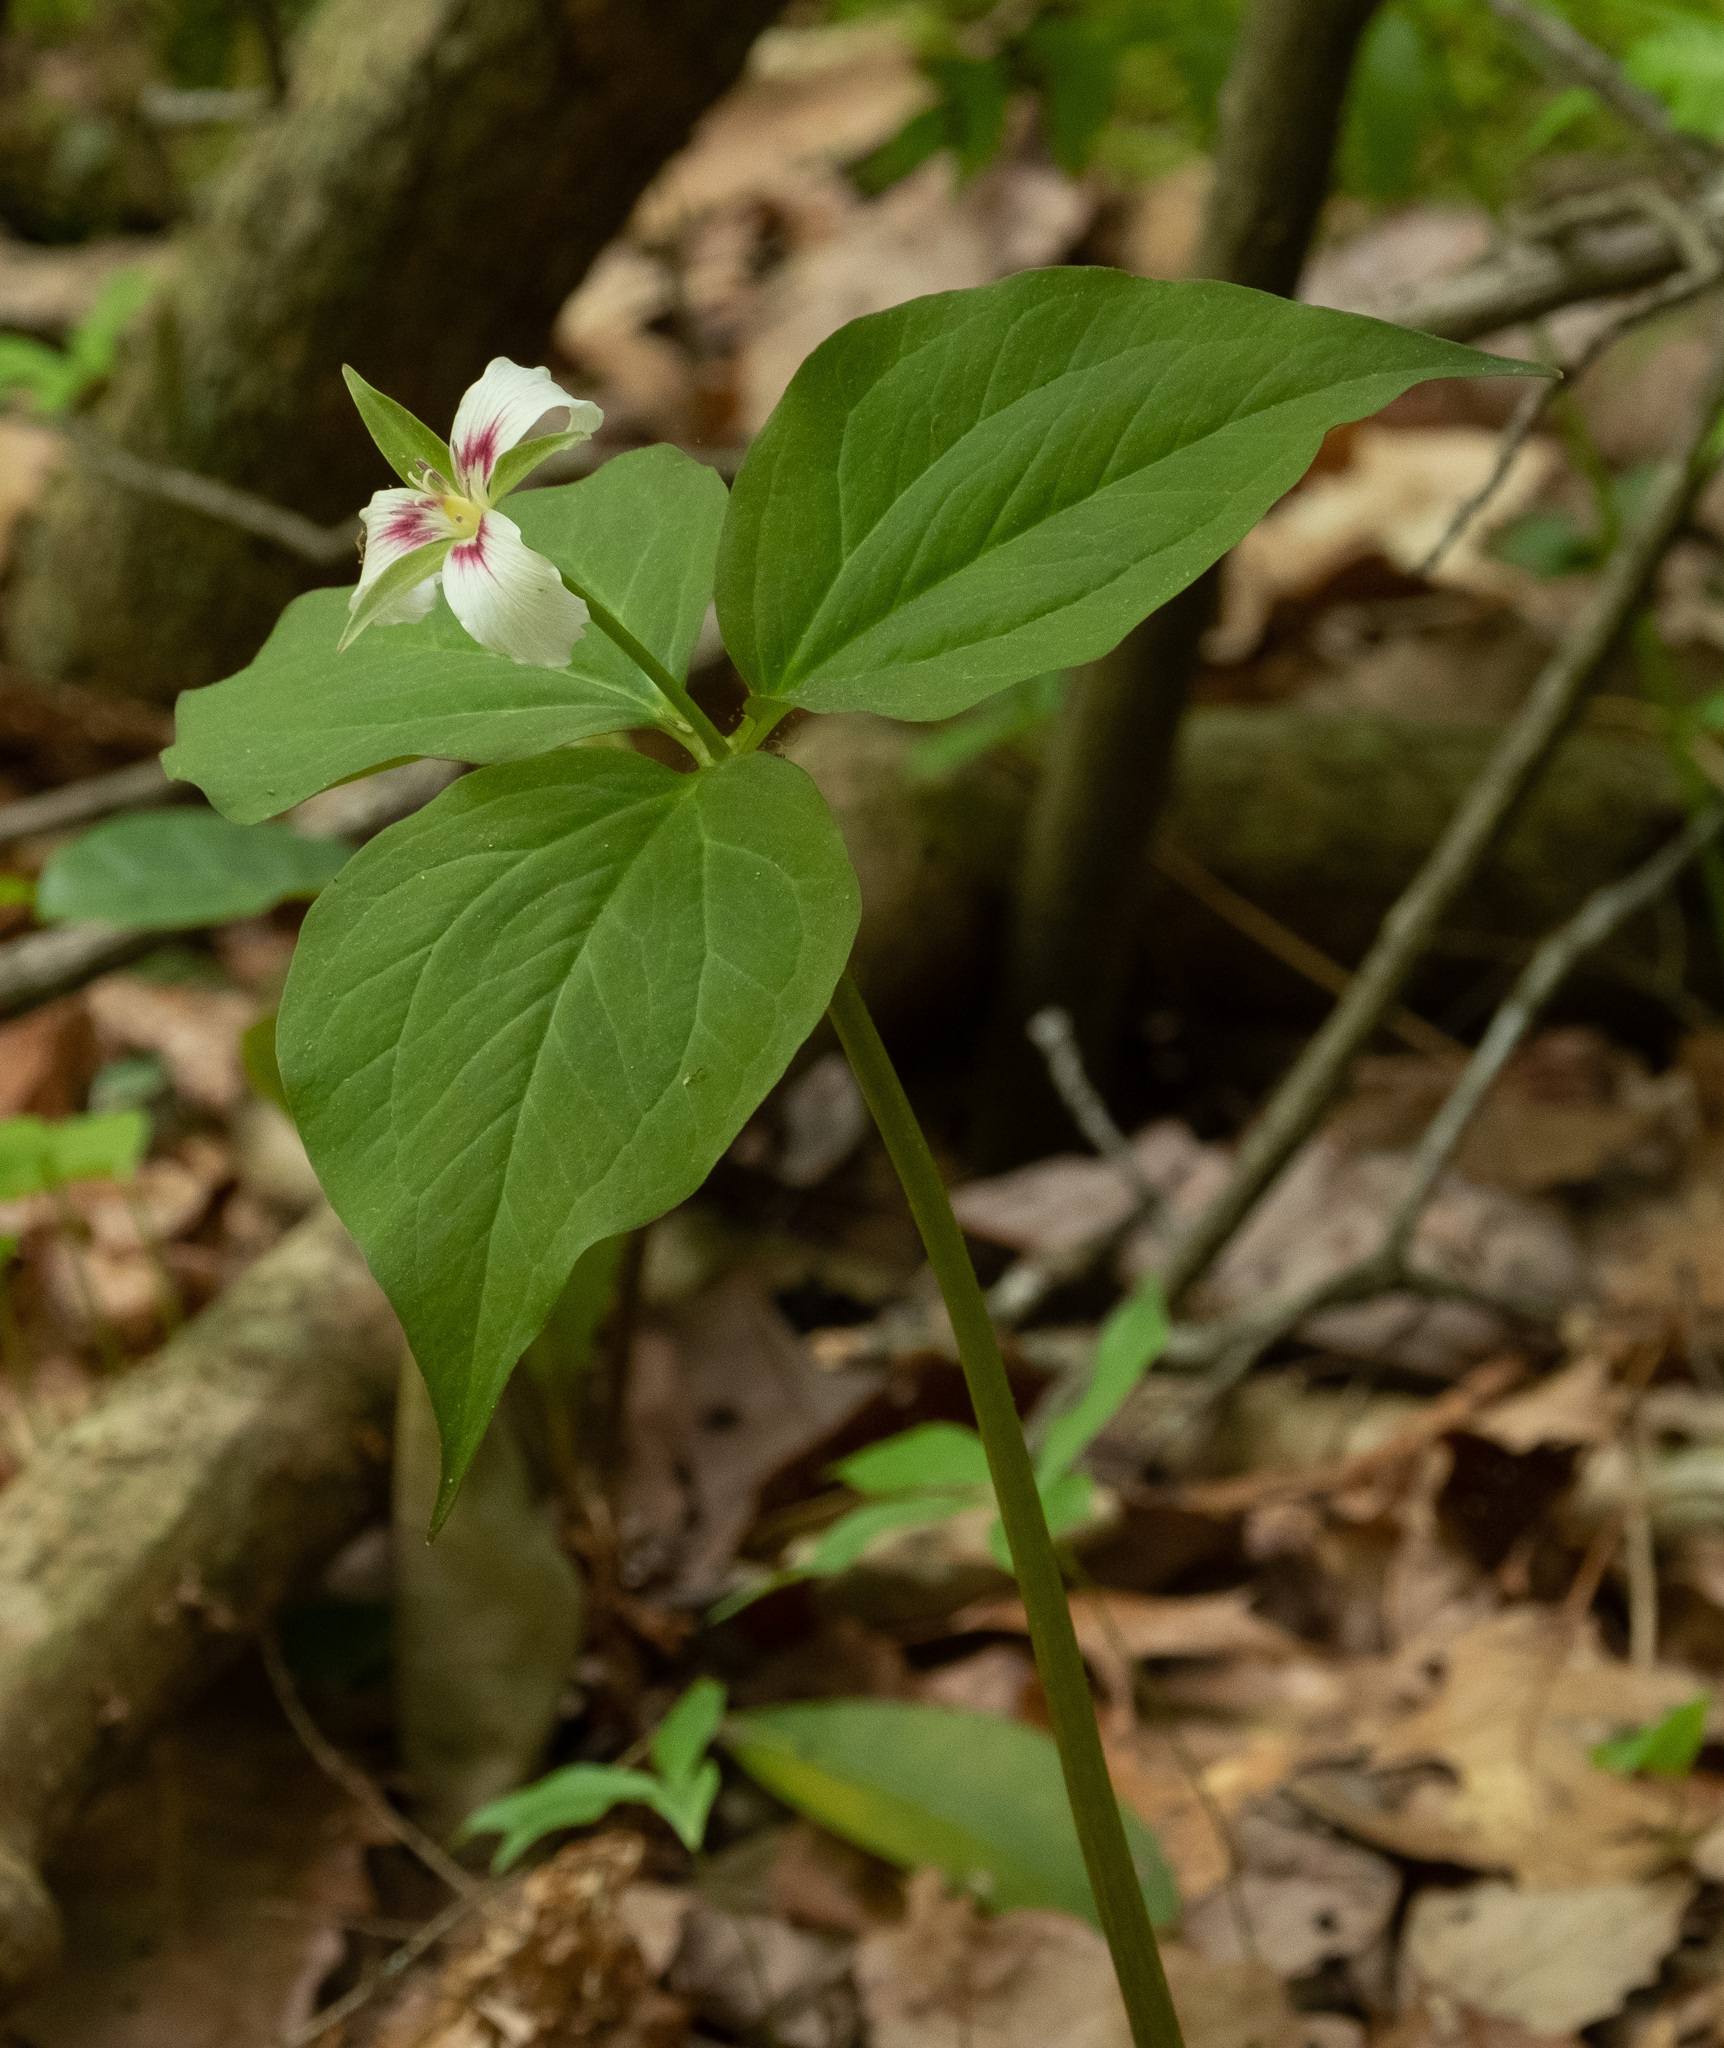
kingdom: Plantae
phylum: Tracheophyta
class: Liliopsida
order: Liliales
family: Melanthiaceae
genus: Trillium
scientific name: Trillium undulatum
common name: Paint trillium
